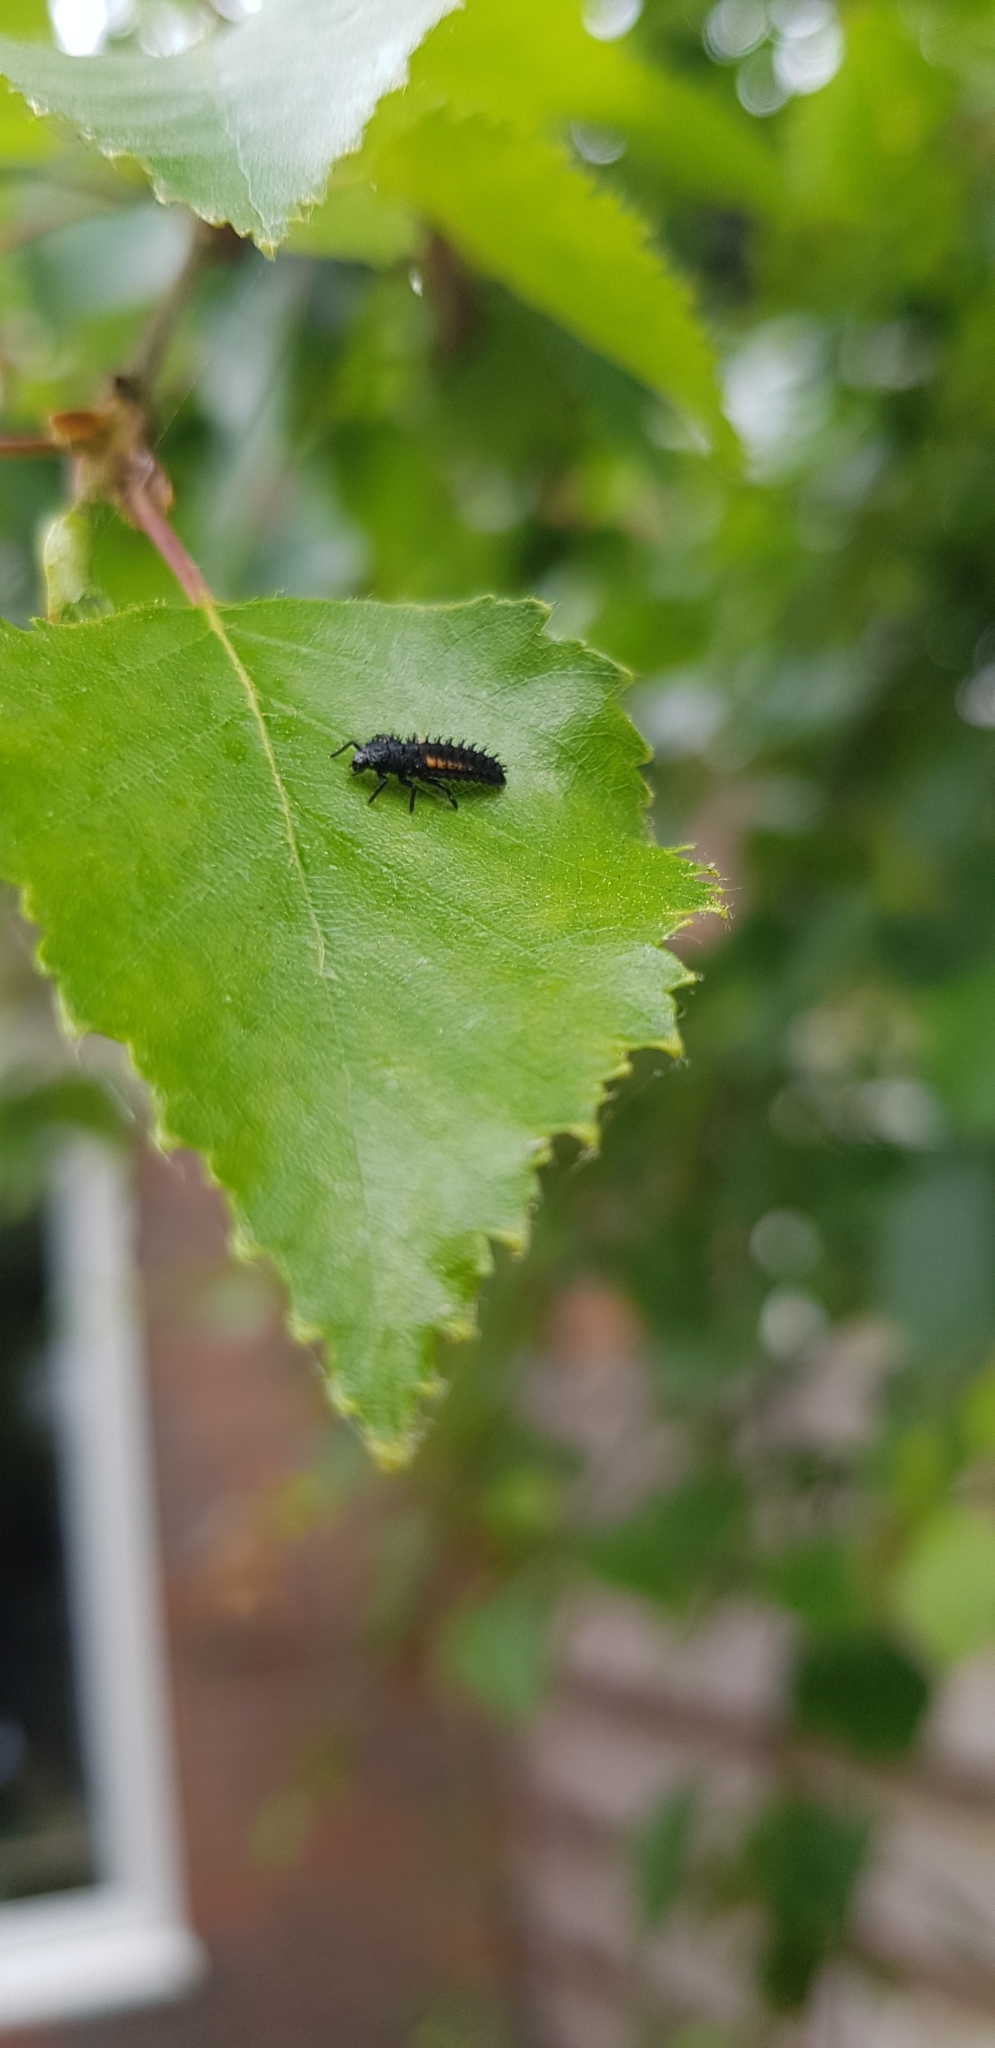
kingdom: Animalia
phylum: Arthropoda
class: Insecta
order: Coleoptera
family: Coccinellidae
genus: Harmonia
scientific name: Harmonia axyridis
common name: Harlequin ladybird
